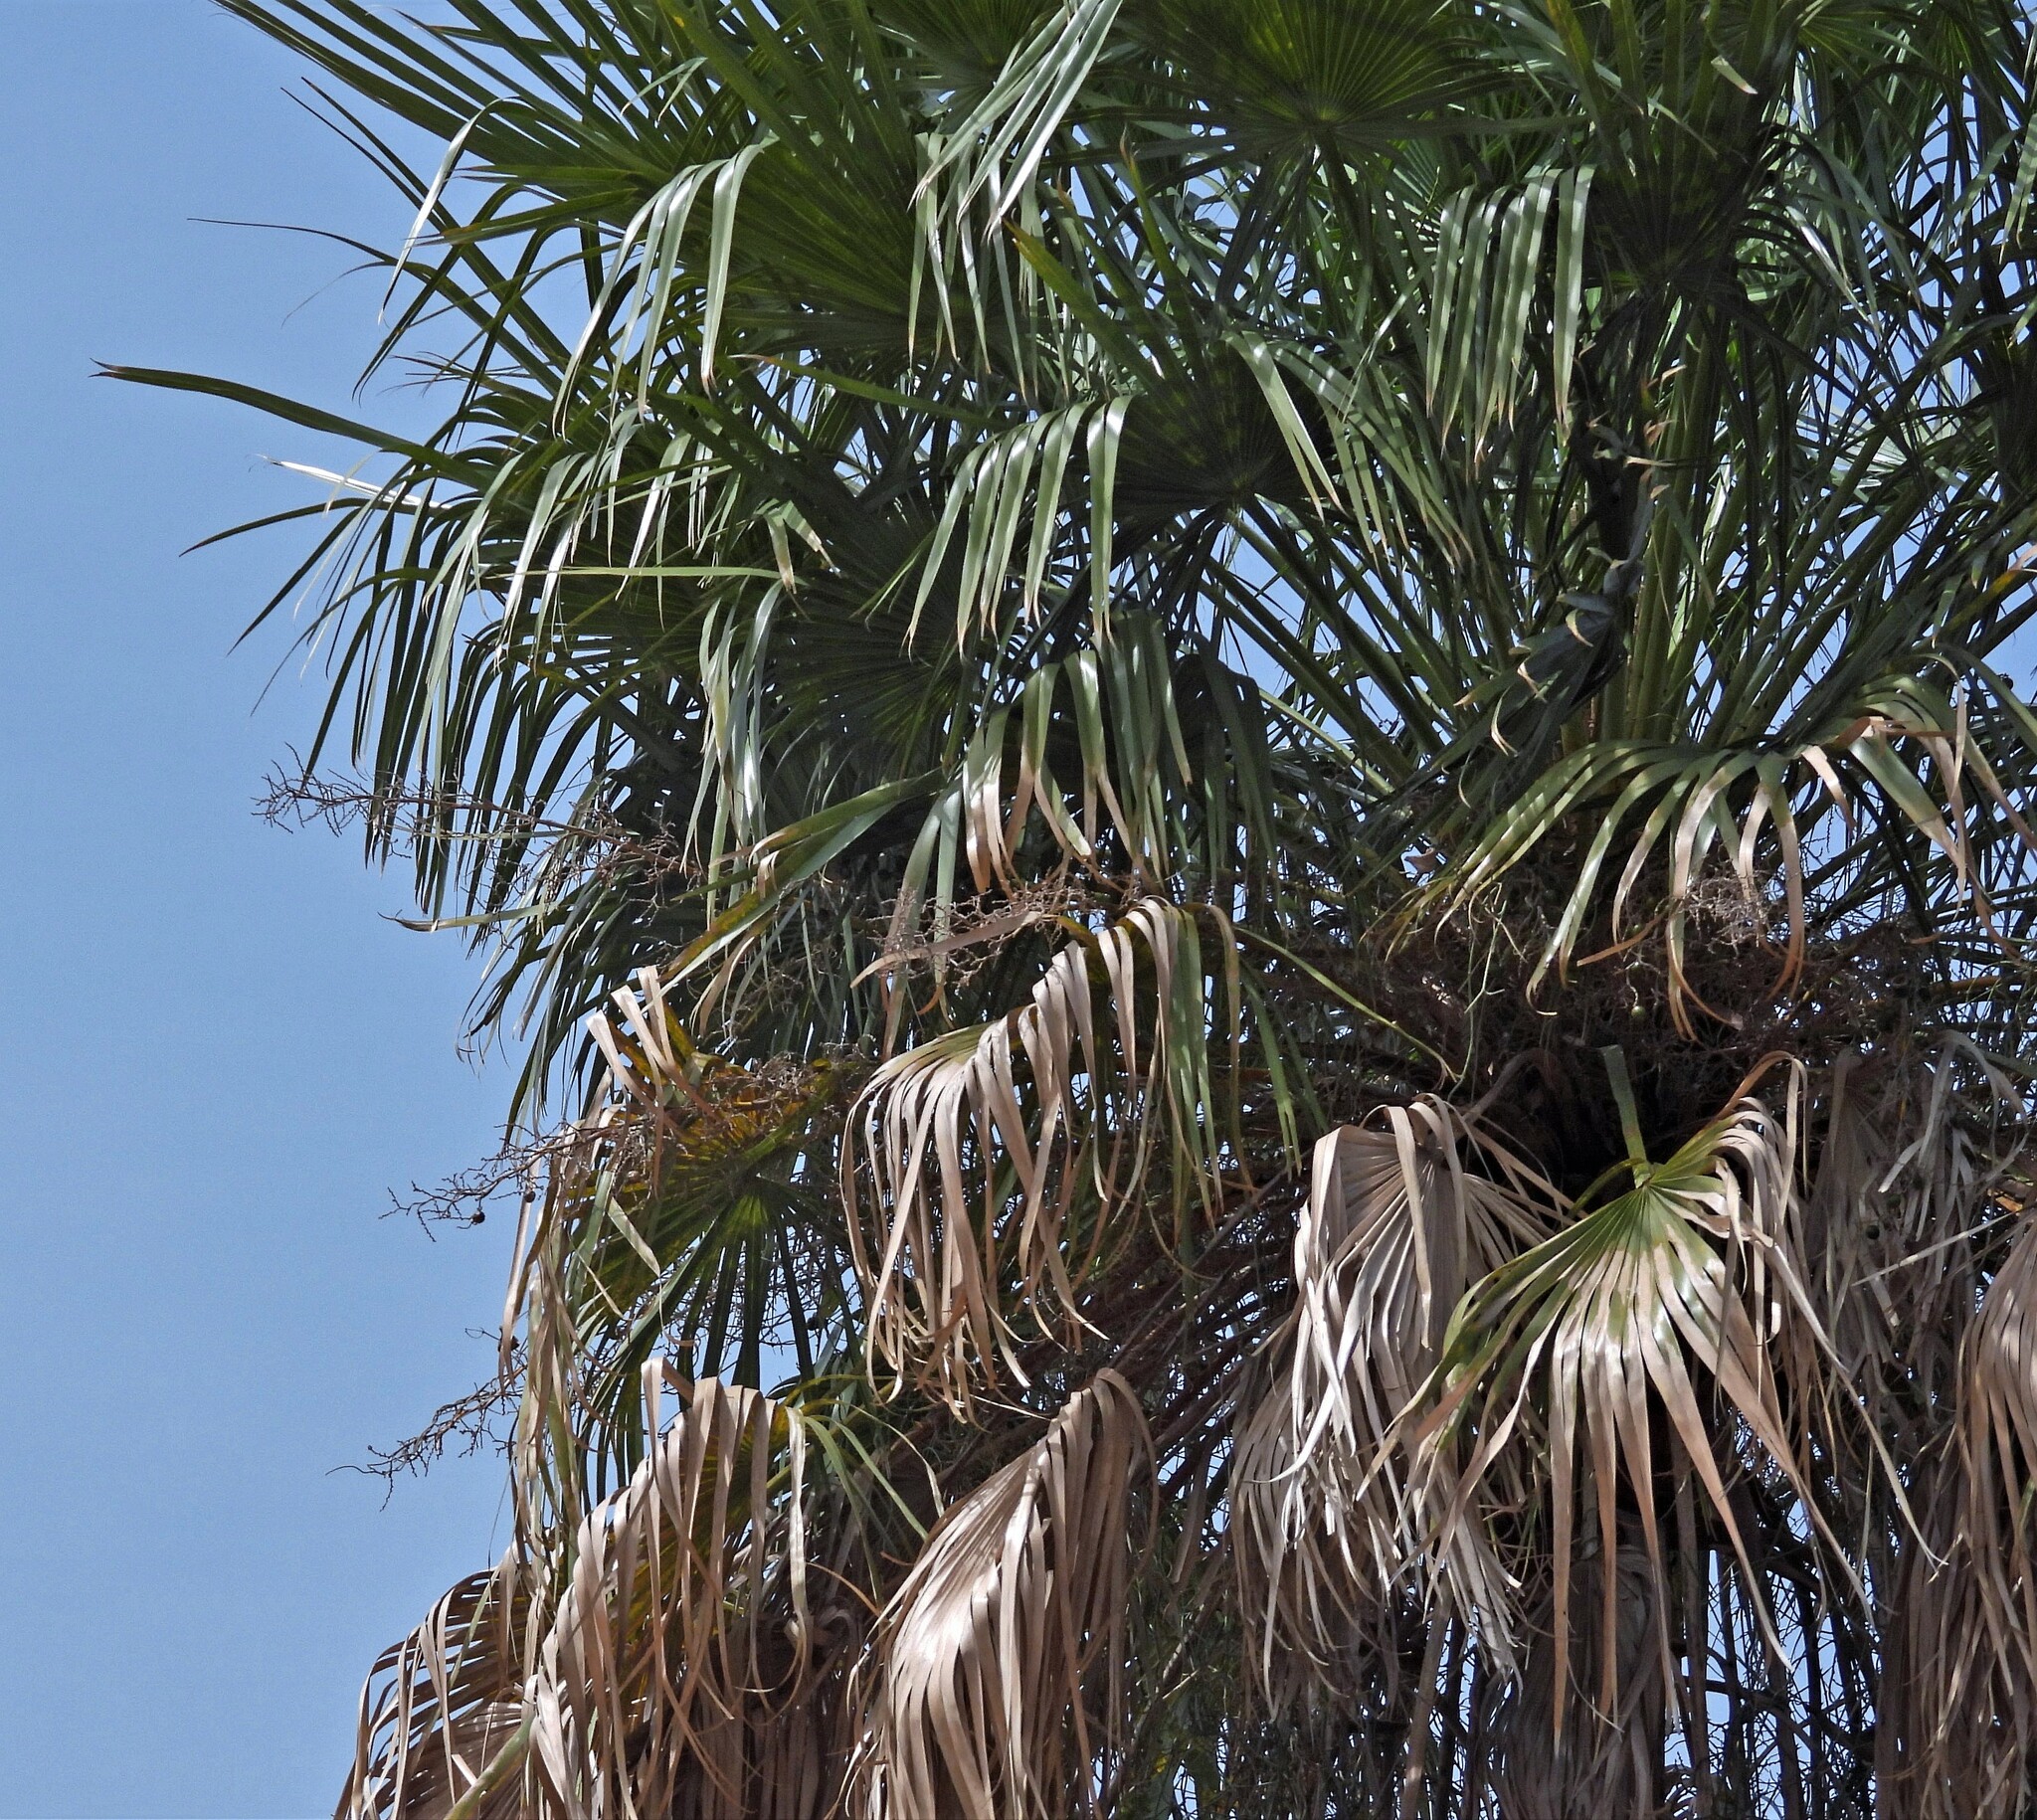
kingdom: Plantae
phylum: Tracheophyta
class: Liliopsida
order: Arecales
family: Arecaceae
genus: Copernicia
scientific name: Copernicia alba
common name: Caranday palm
